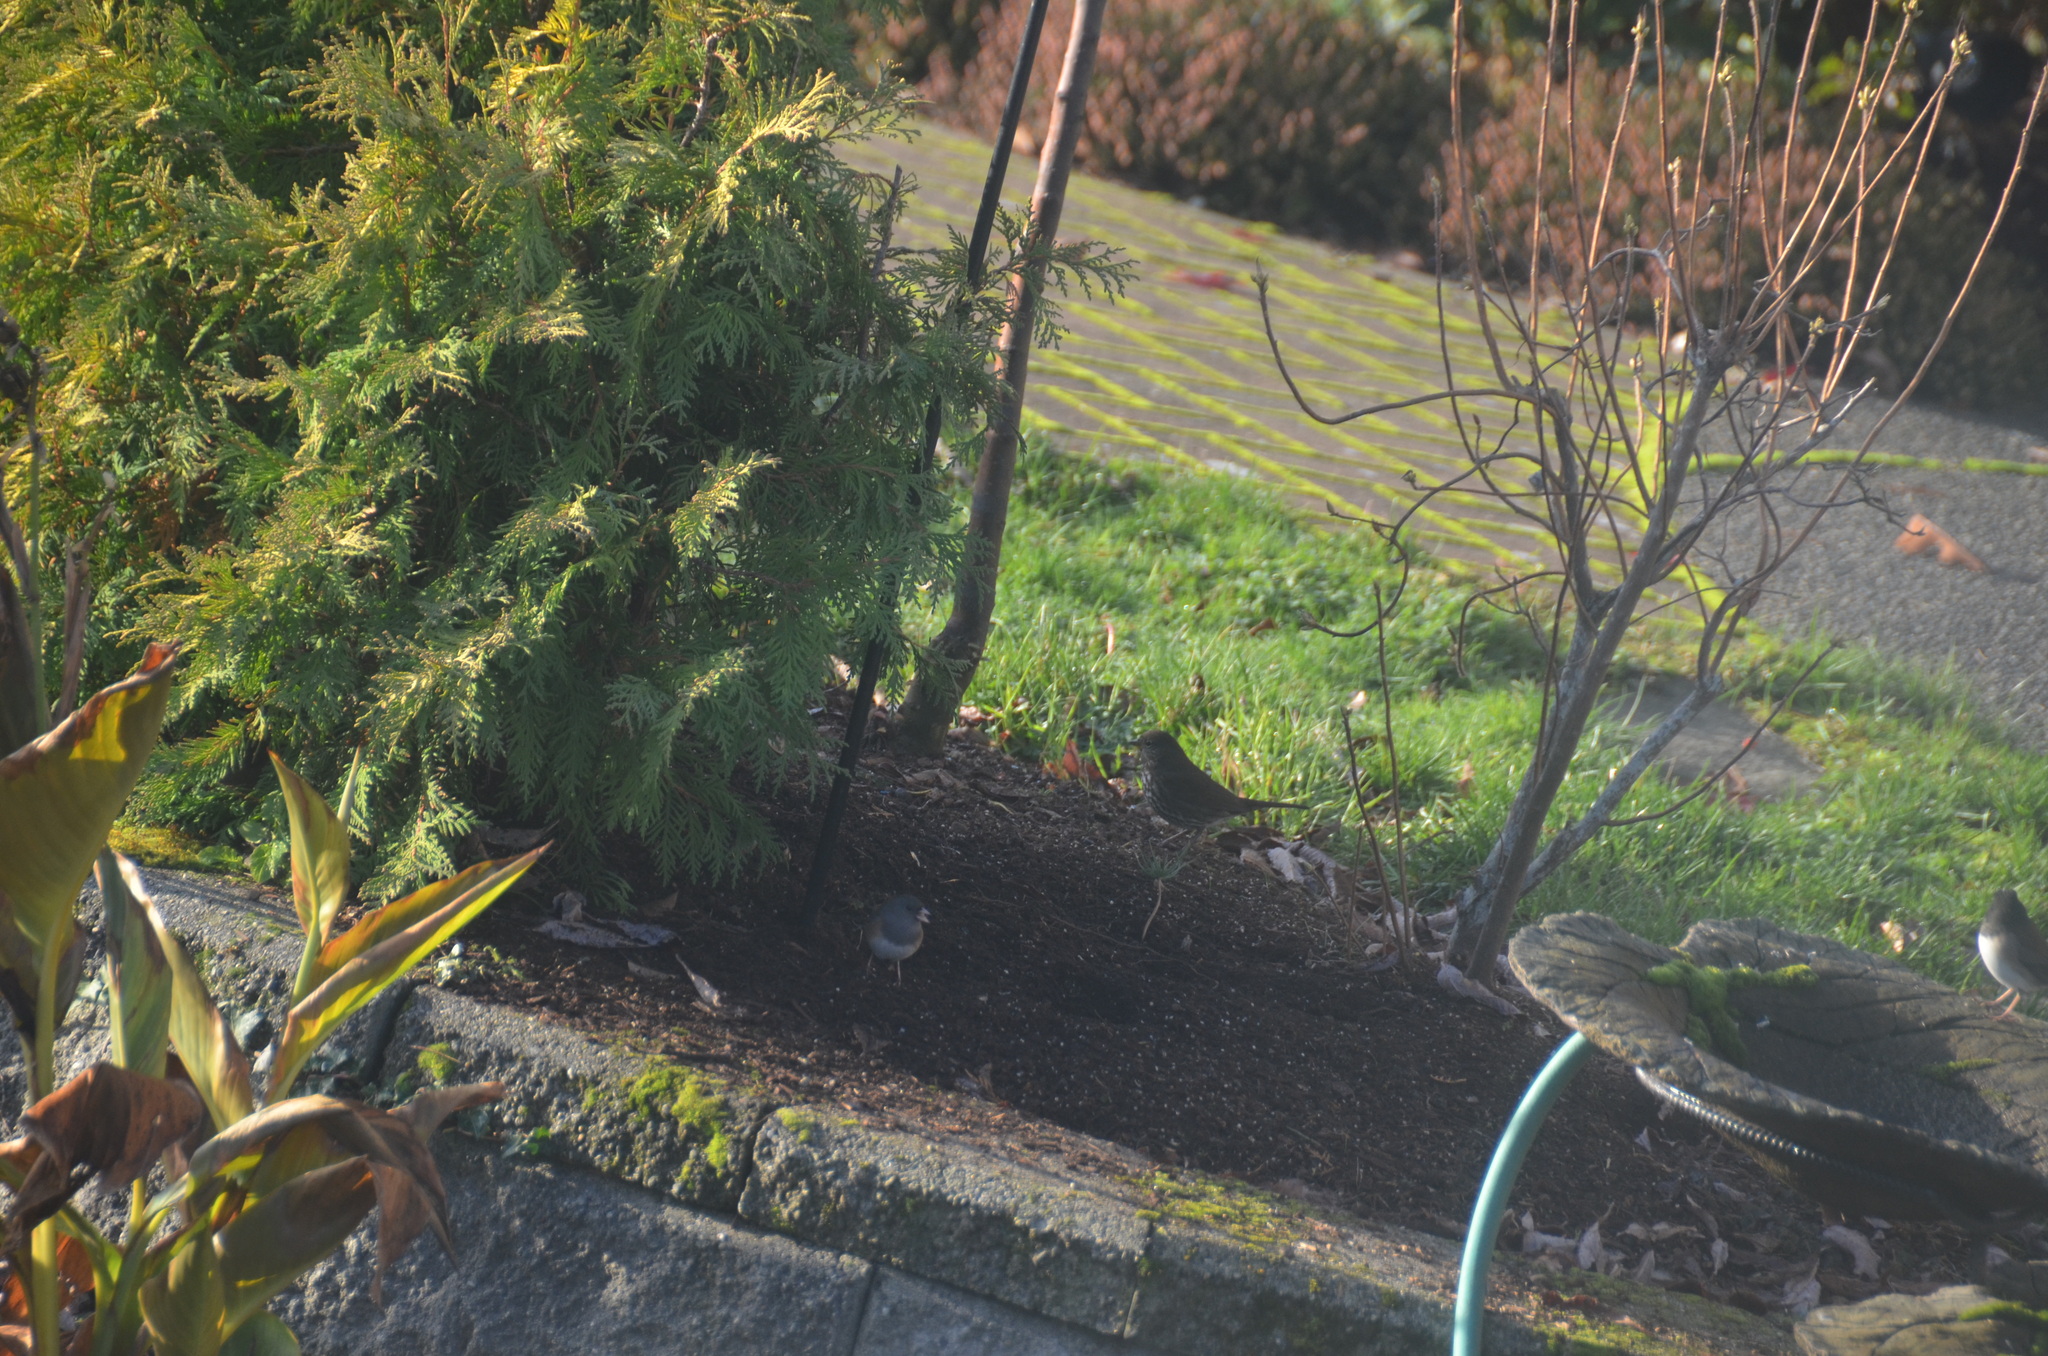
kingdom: Animalia
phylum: Chordata
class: Aves
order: Passeriformes
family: Passerellidae
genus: Passerella
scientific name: Passerella iliaca
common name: Fox sparrow
